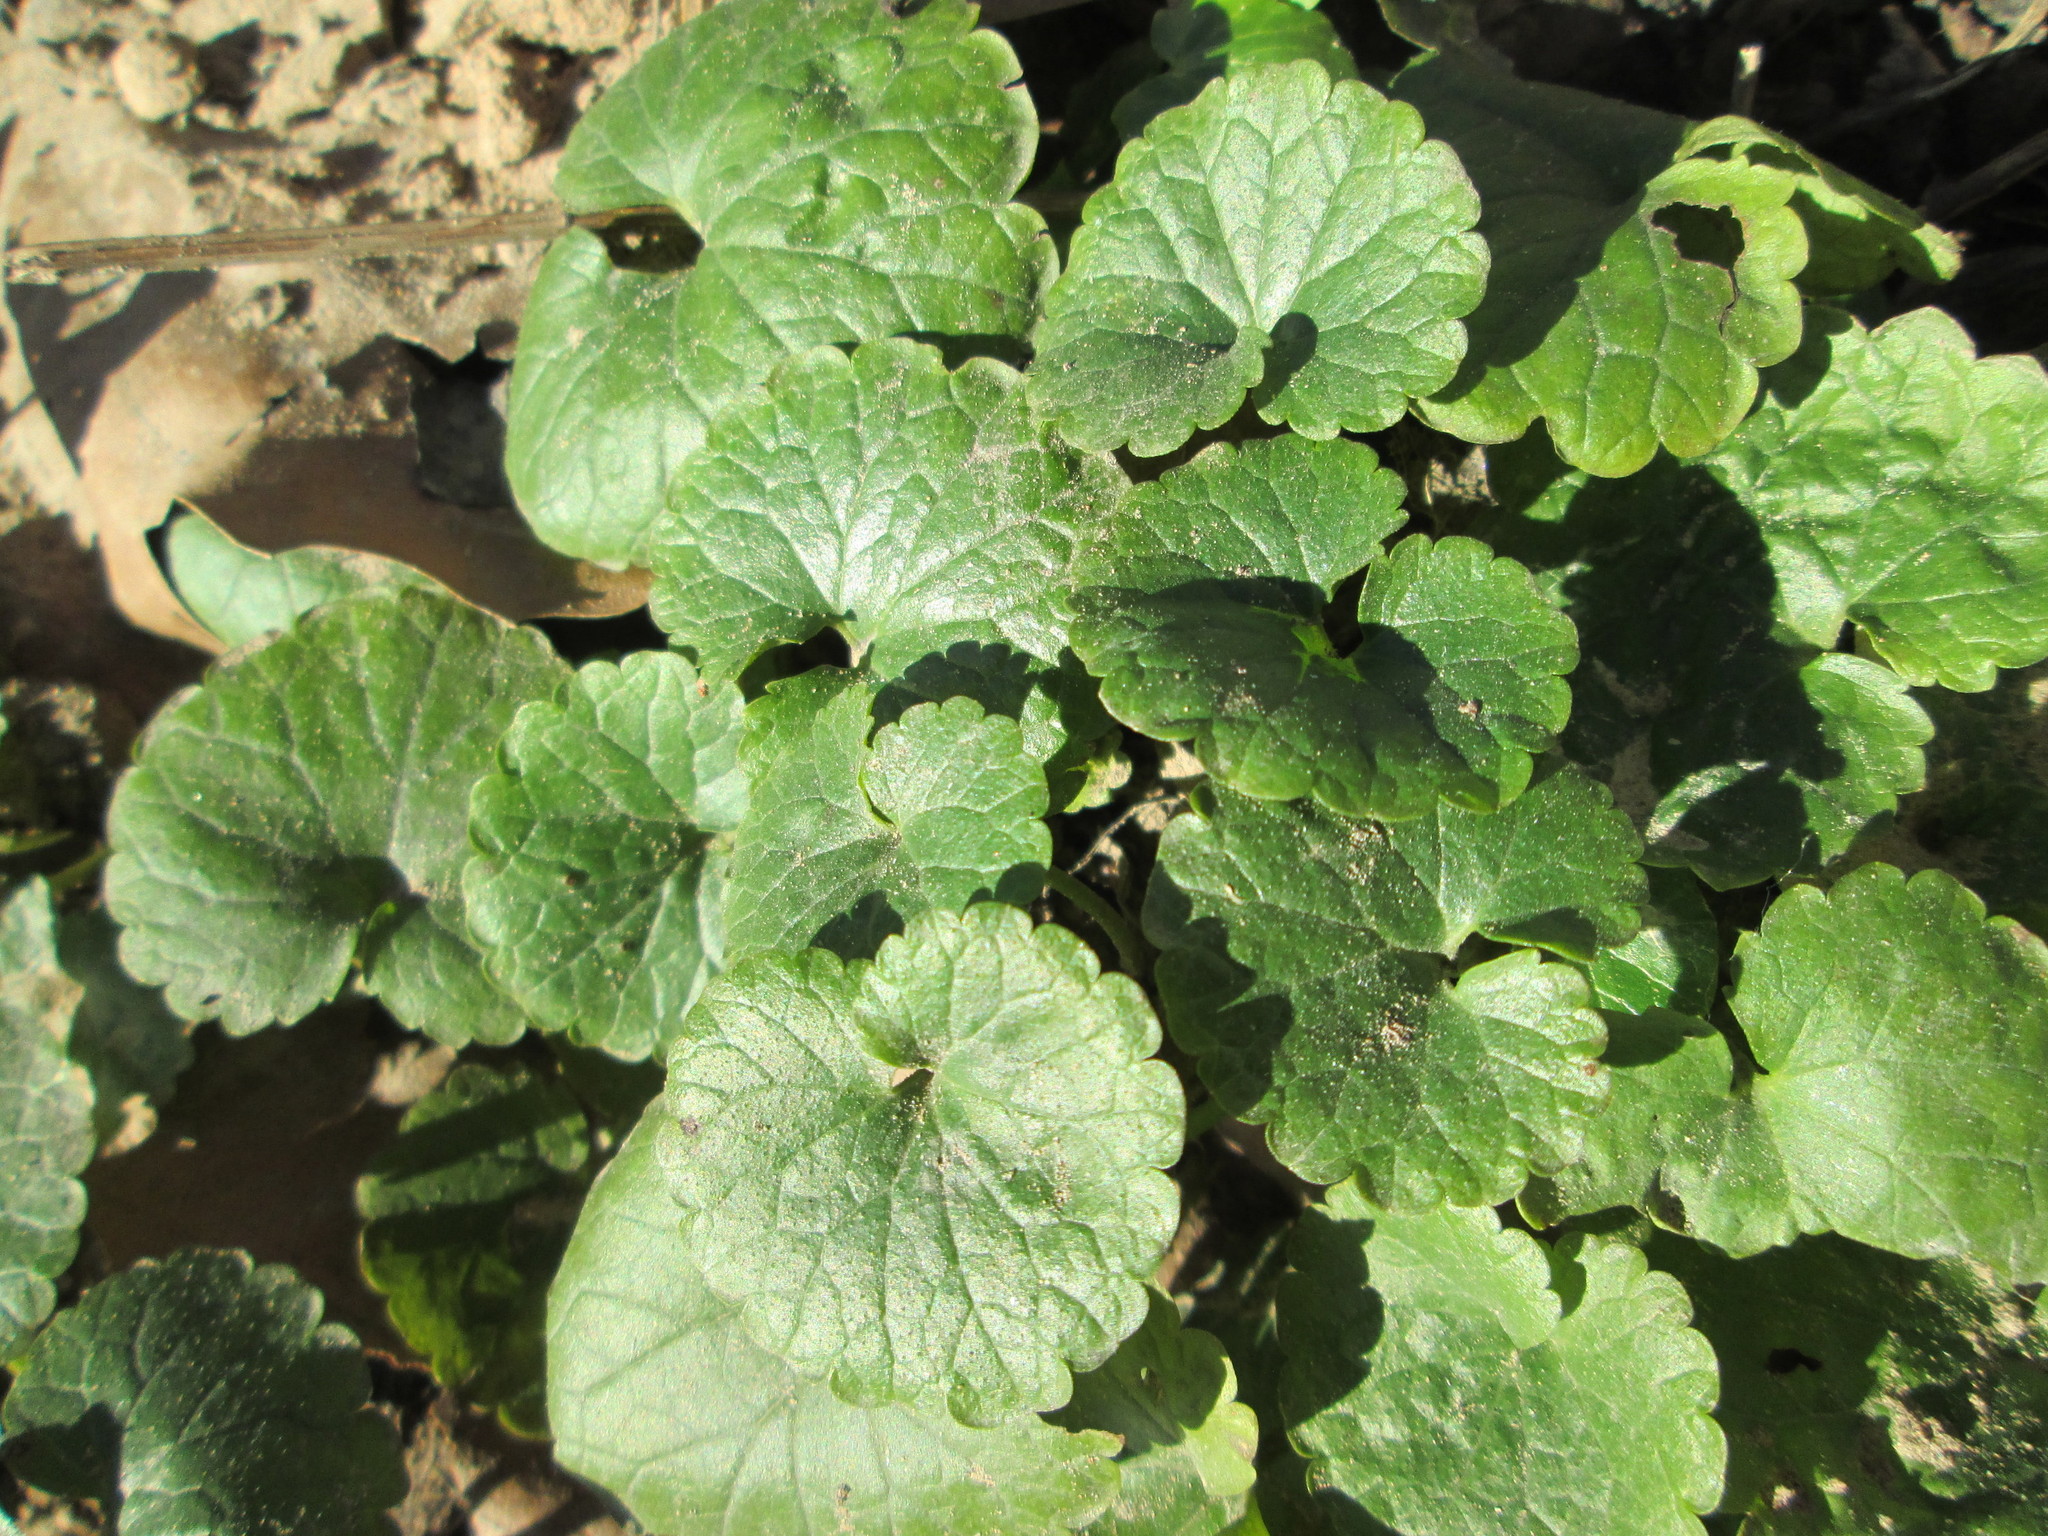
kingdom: Plantae
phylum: Tracheophyta
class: Magnoliopsida
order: Lamiales
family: Lamiaceae
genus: Glechoma
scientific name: Glechoma hederacea
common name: Ground ivy
